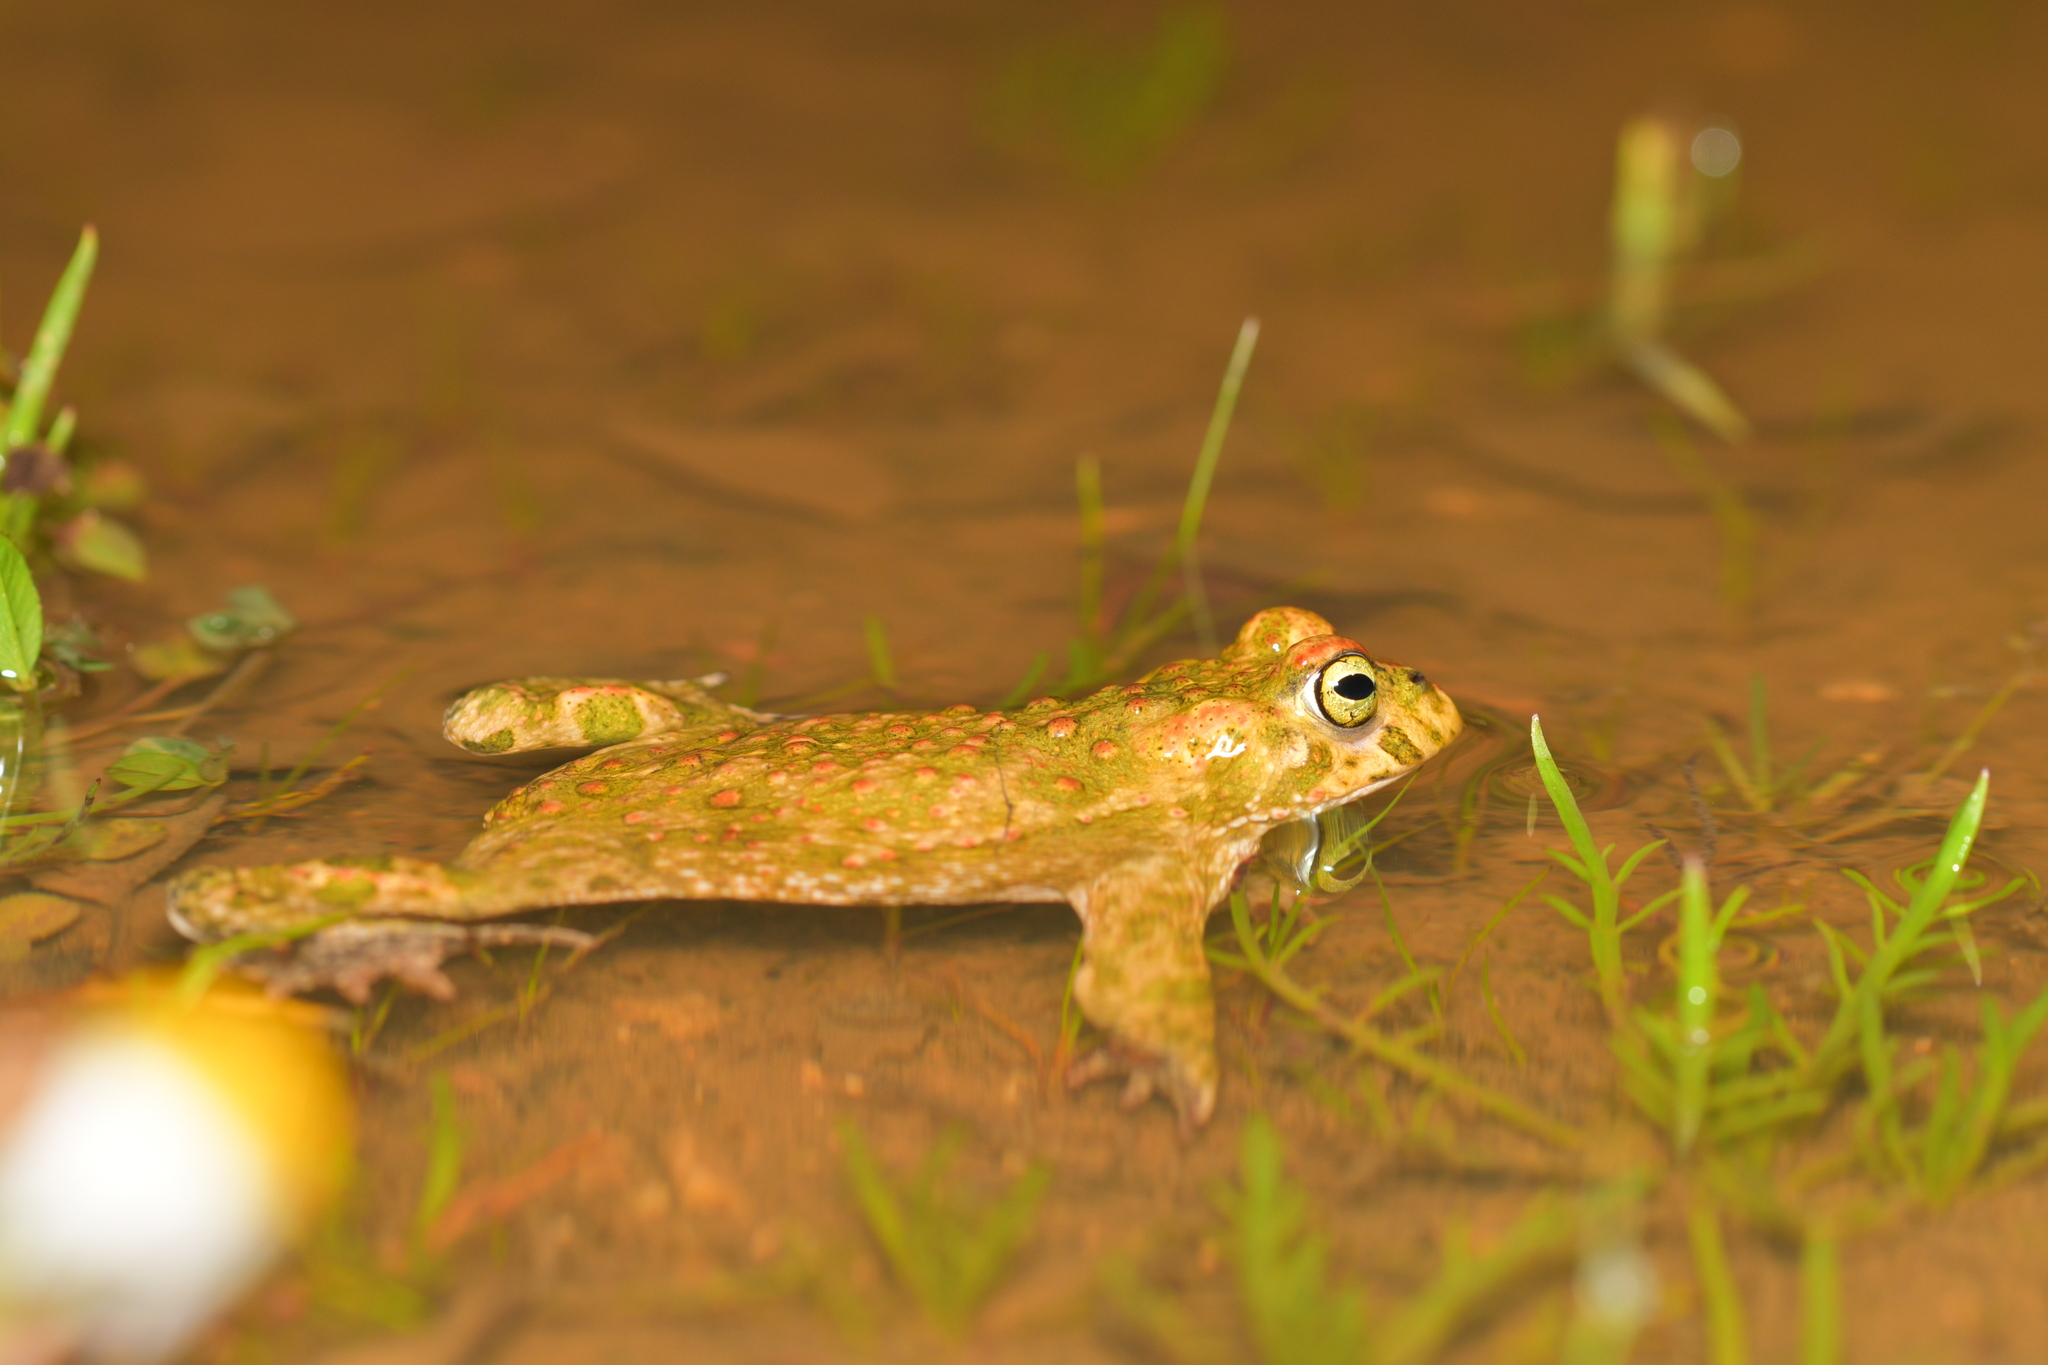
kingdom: Animalia
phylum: Chordata
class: Amphibia
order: Anura
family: Bufonidae
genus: Epidalea
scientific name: Epidalea calamita
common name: Natterjack toad
